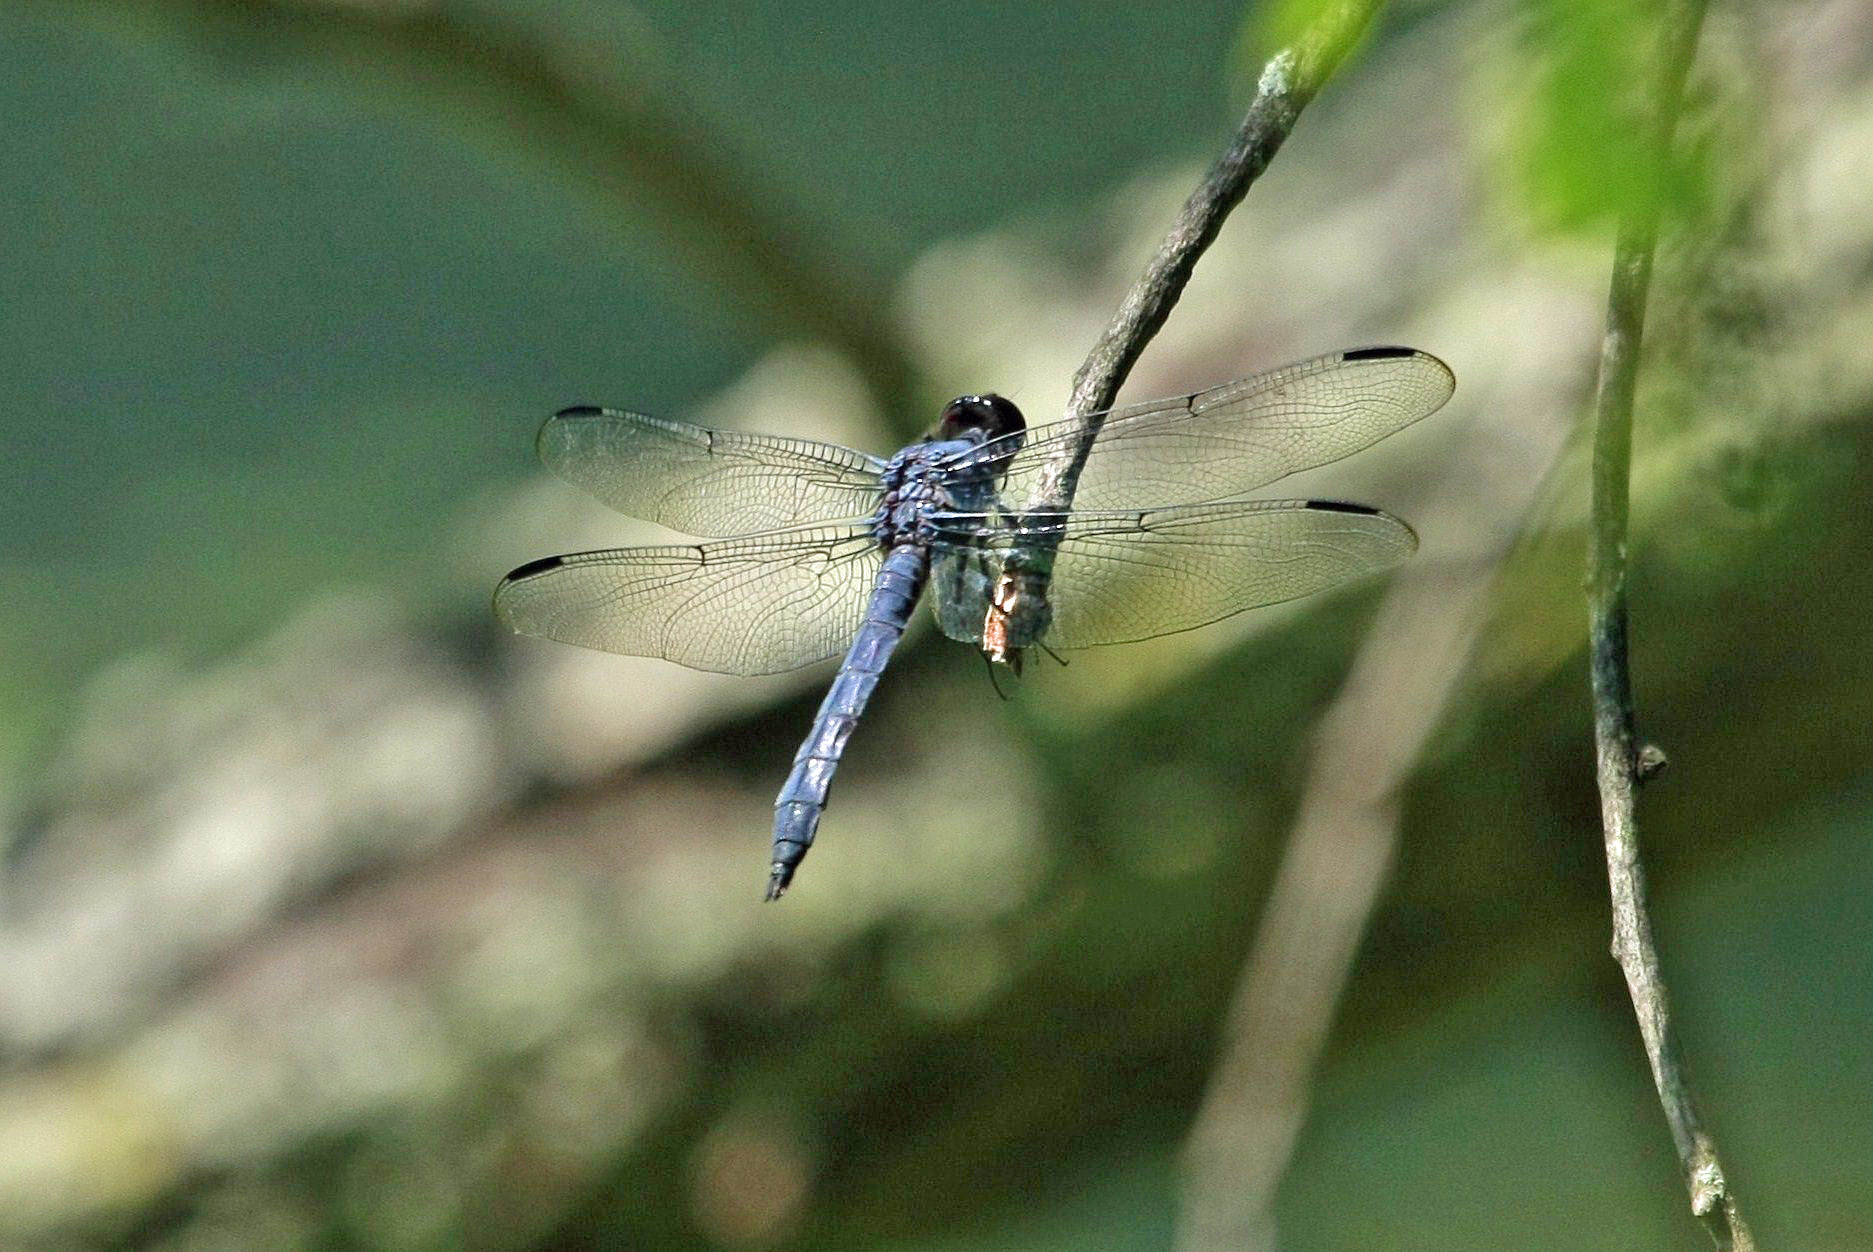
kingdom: Animalia
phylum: Arthropoda
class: Insecta
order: Odonata
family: Libellulidae
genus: Libellula
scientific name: Libellula incesta
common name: Slaty skimmer
